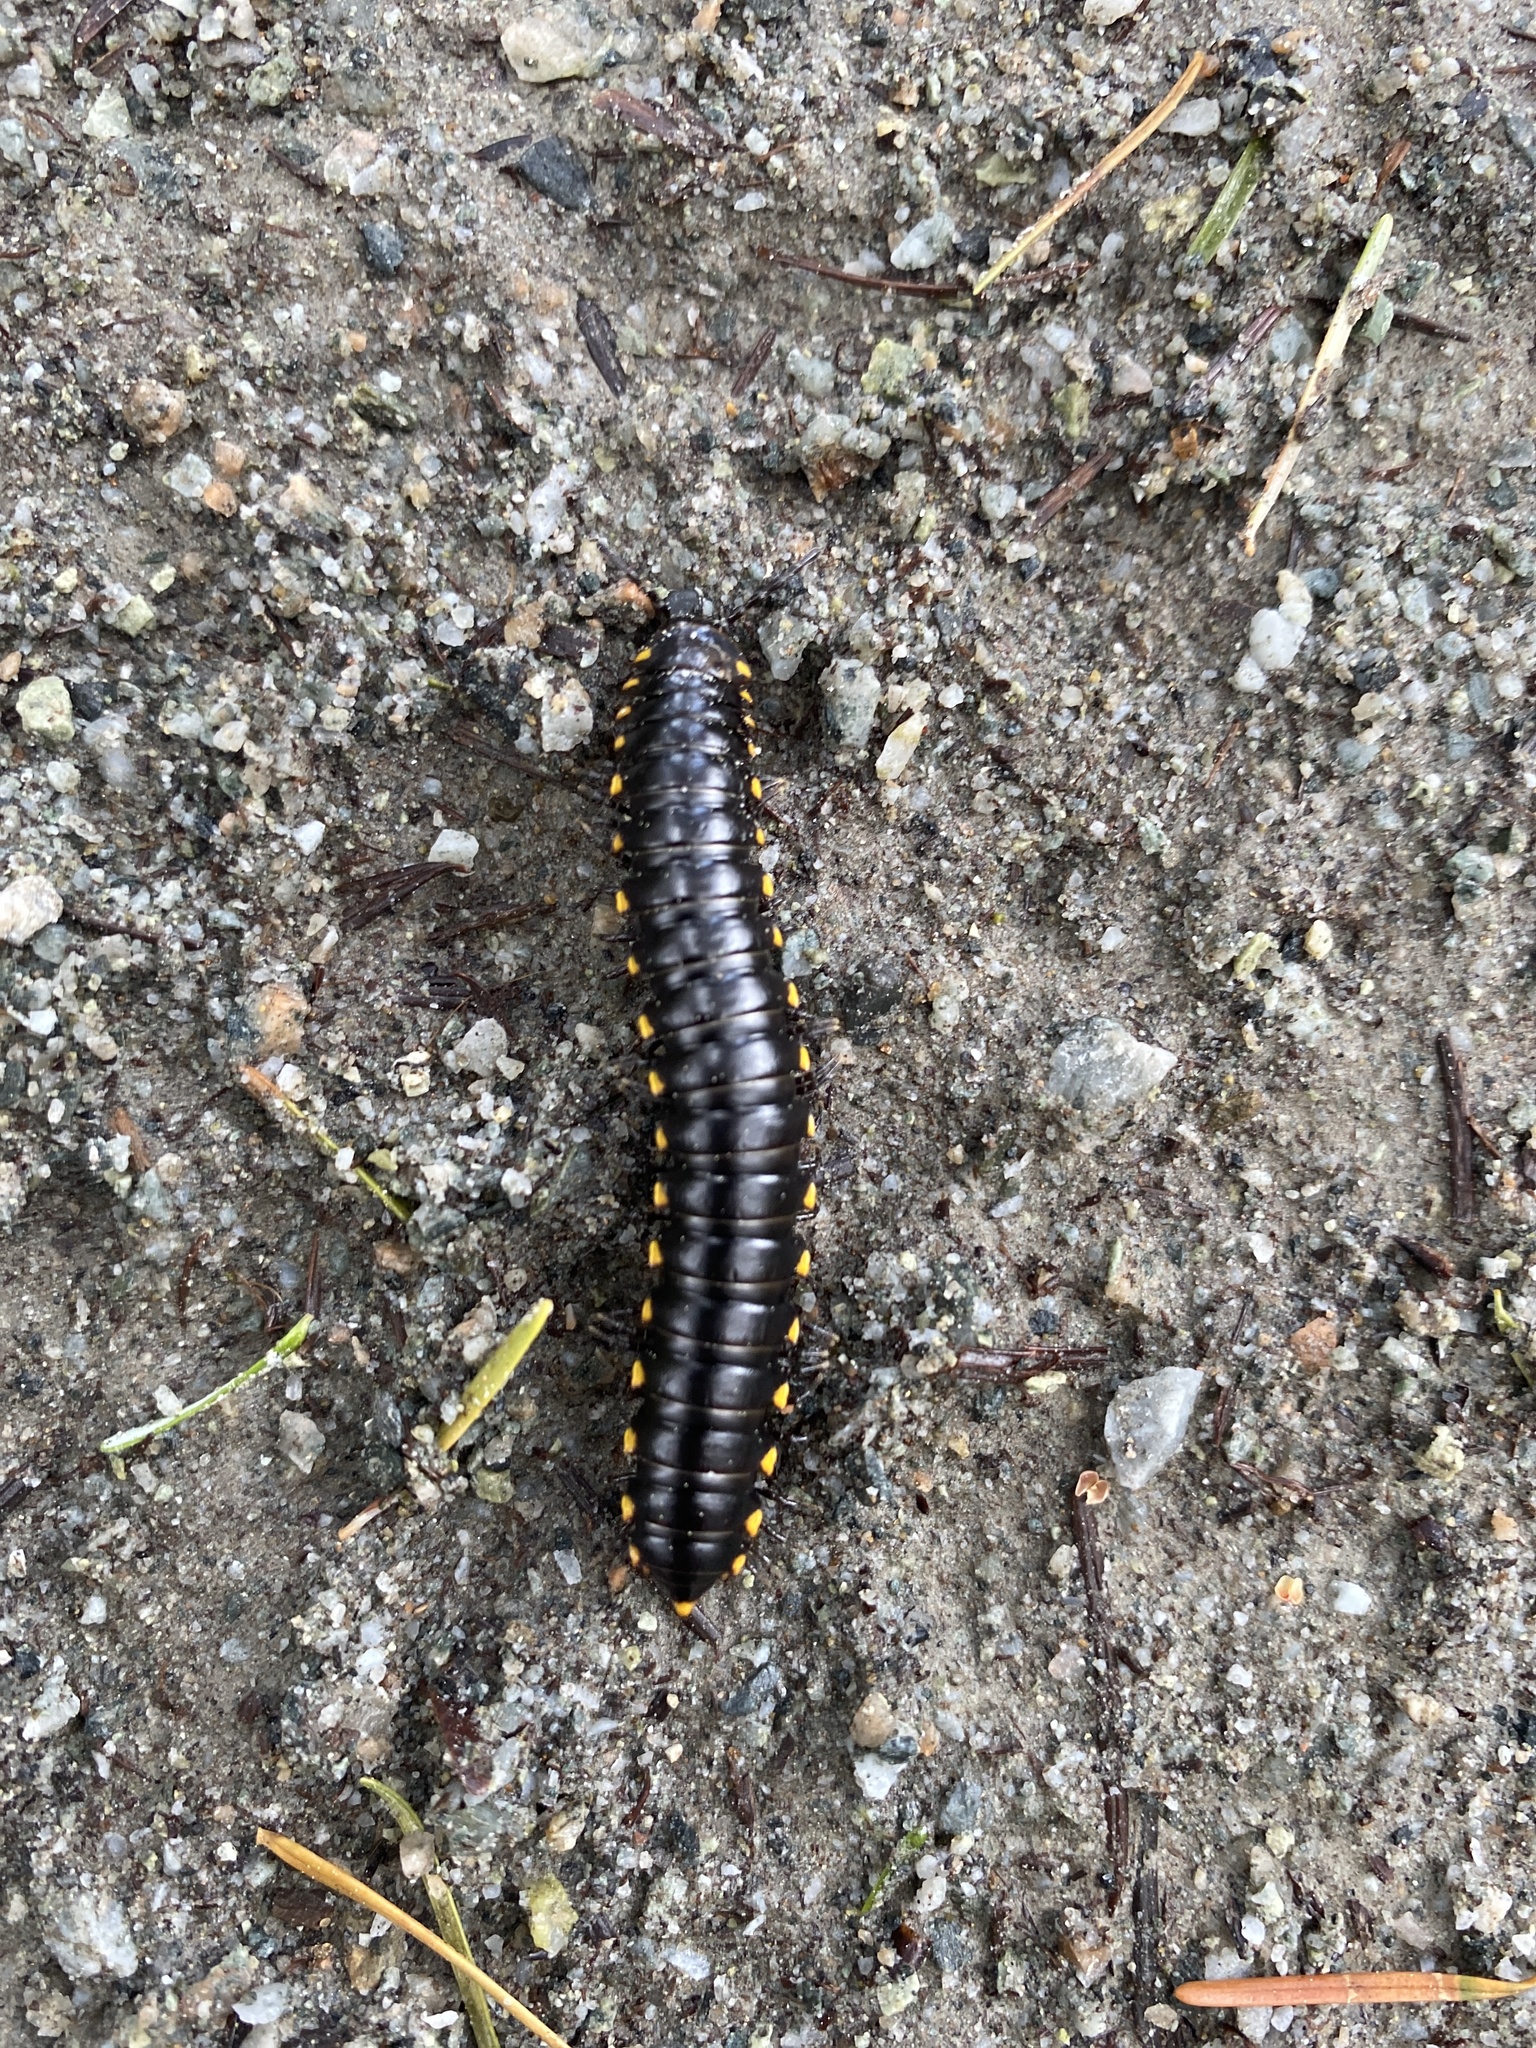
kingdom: Animalia
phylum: Arthropoda
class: Diplopoda
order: Polydesmida
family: Xystodesmidae
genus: Harpaphe
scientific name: Harpaphe haydeniana
